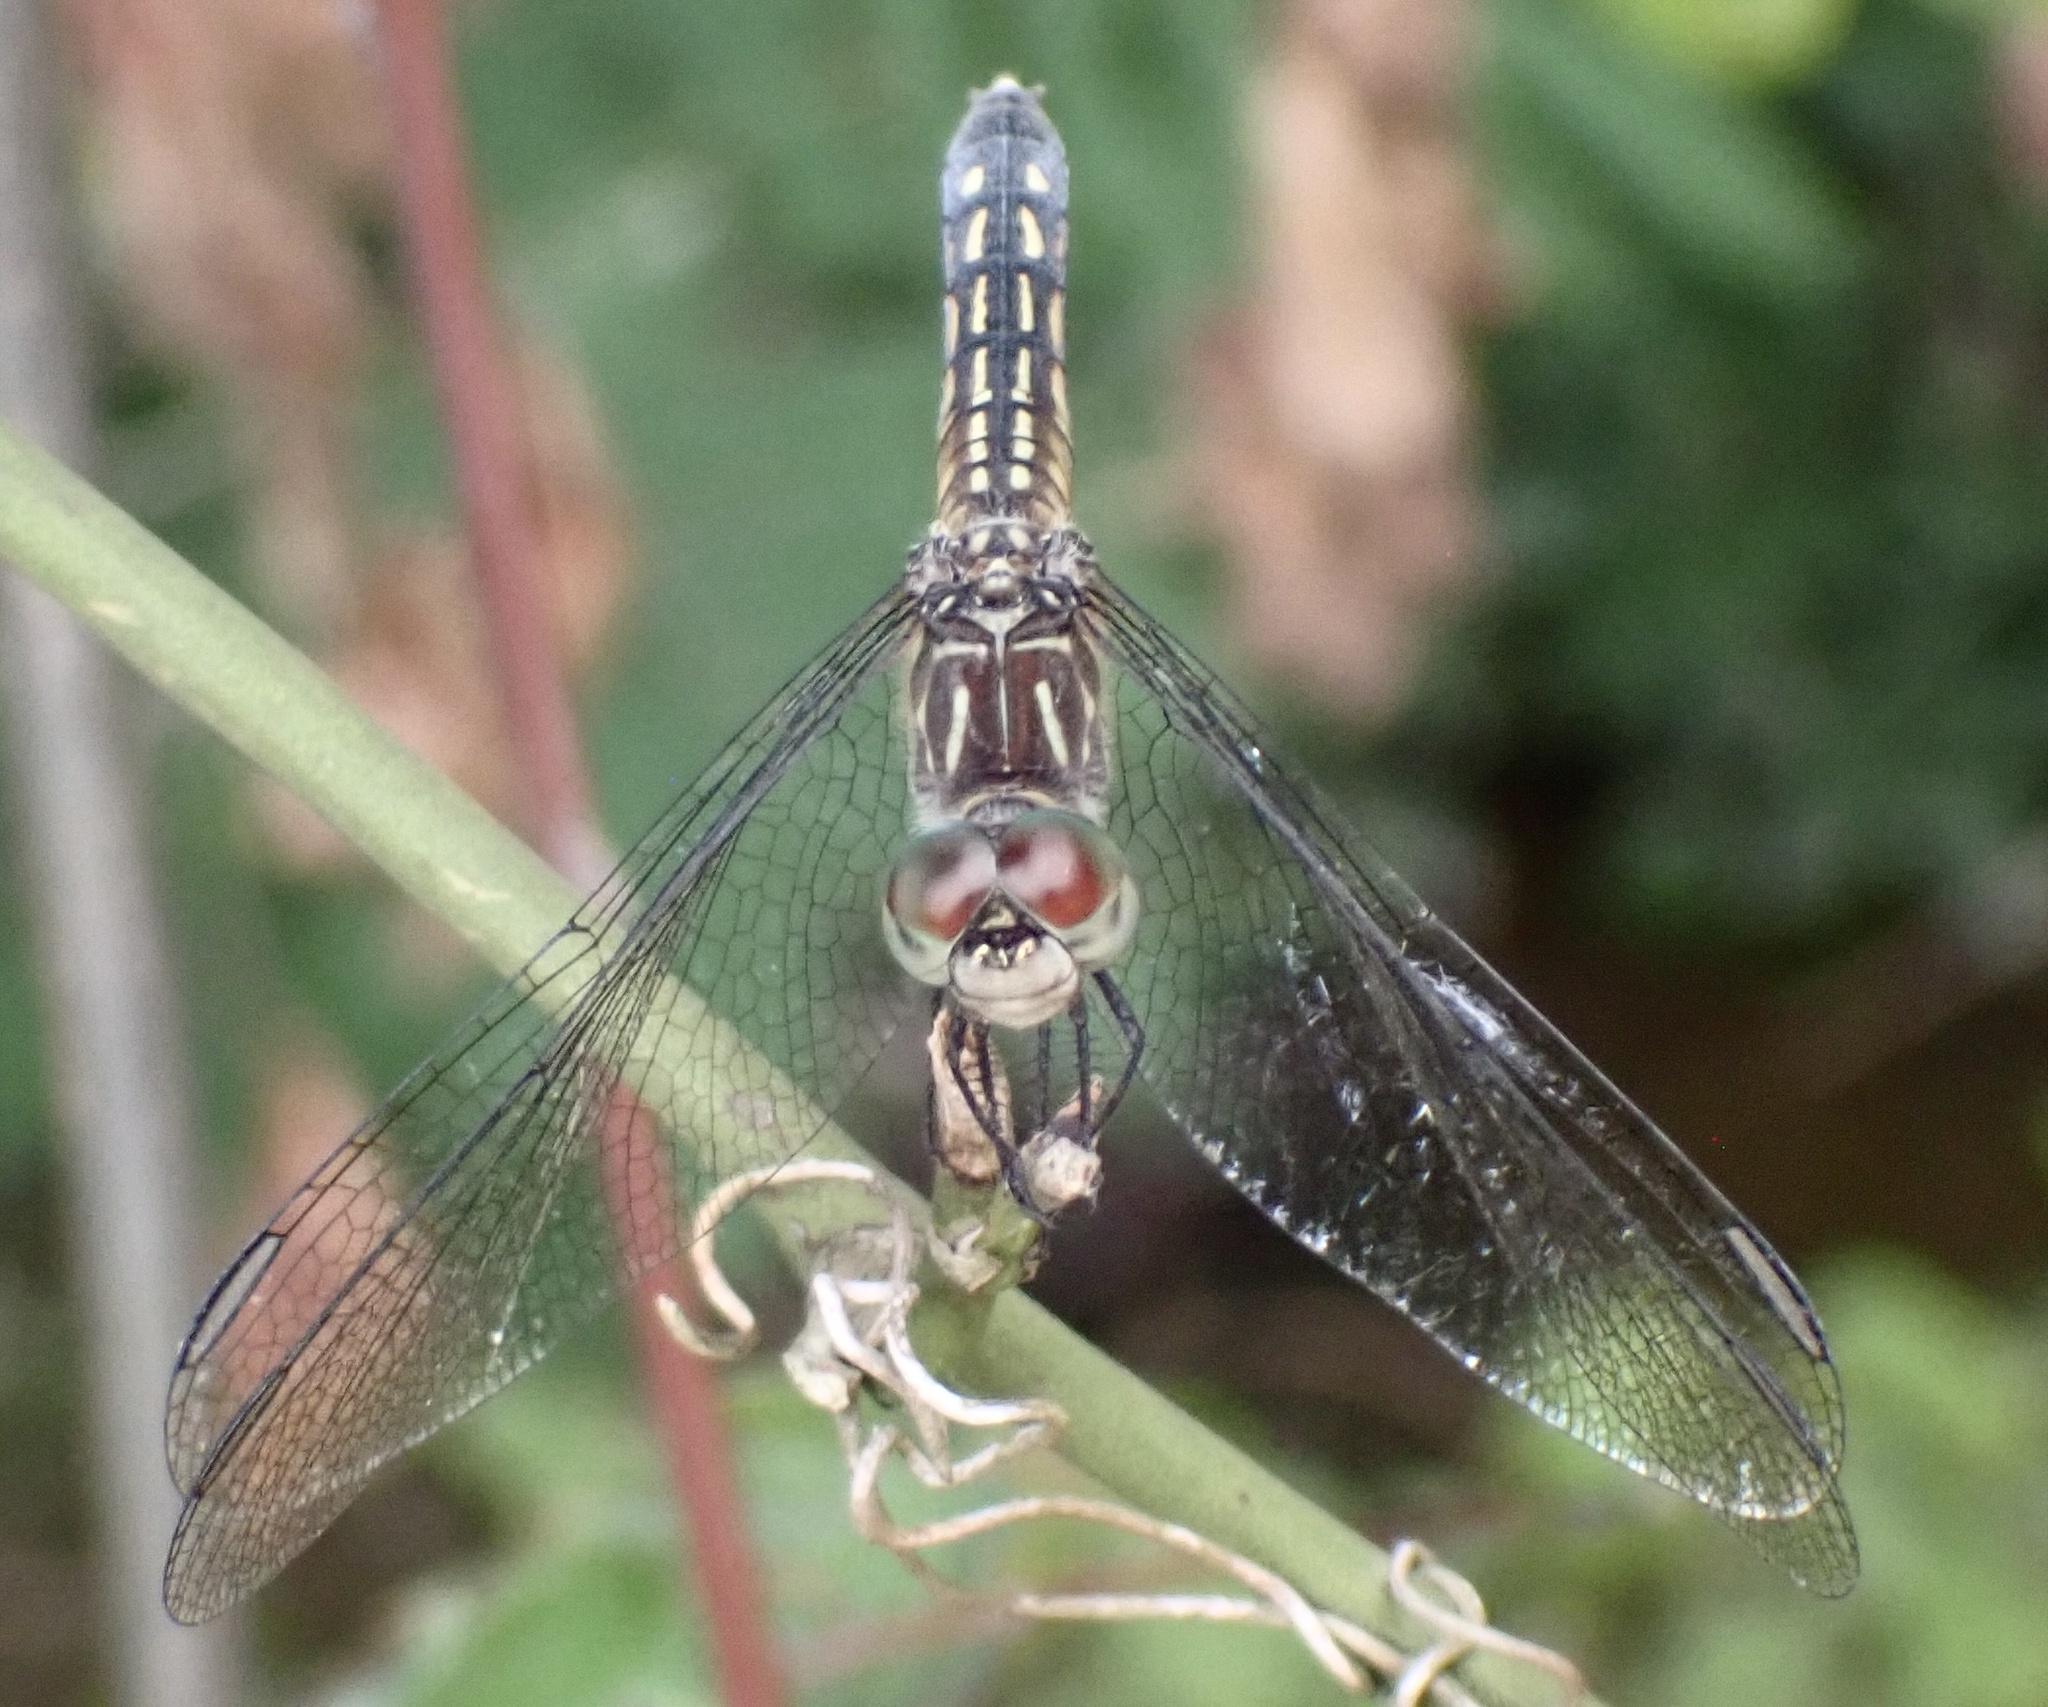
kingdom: Animalia
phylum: Arthropoda
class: Insecta
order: Odonata
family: Libellulidae
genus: Pachydiplax
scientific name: Pachydiplax longipennis
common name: Blue dasher
